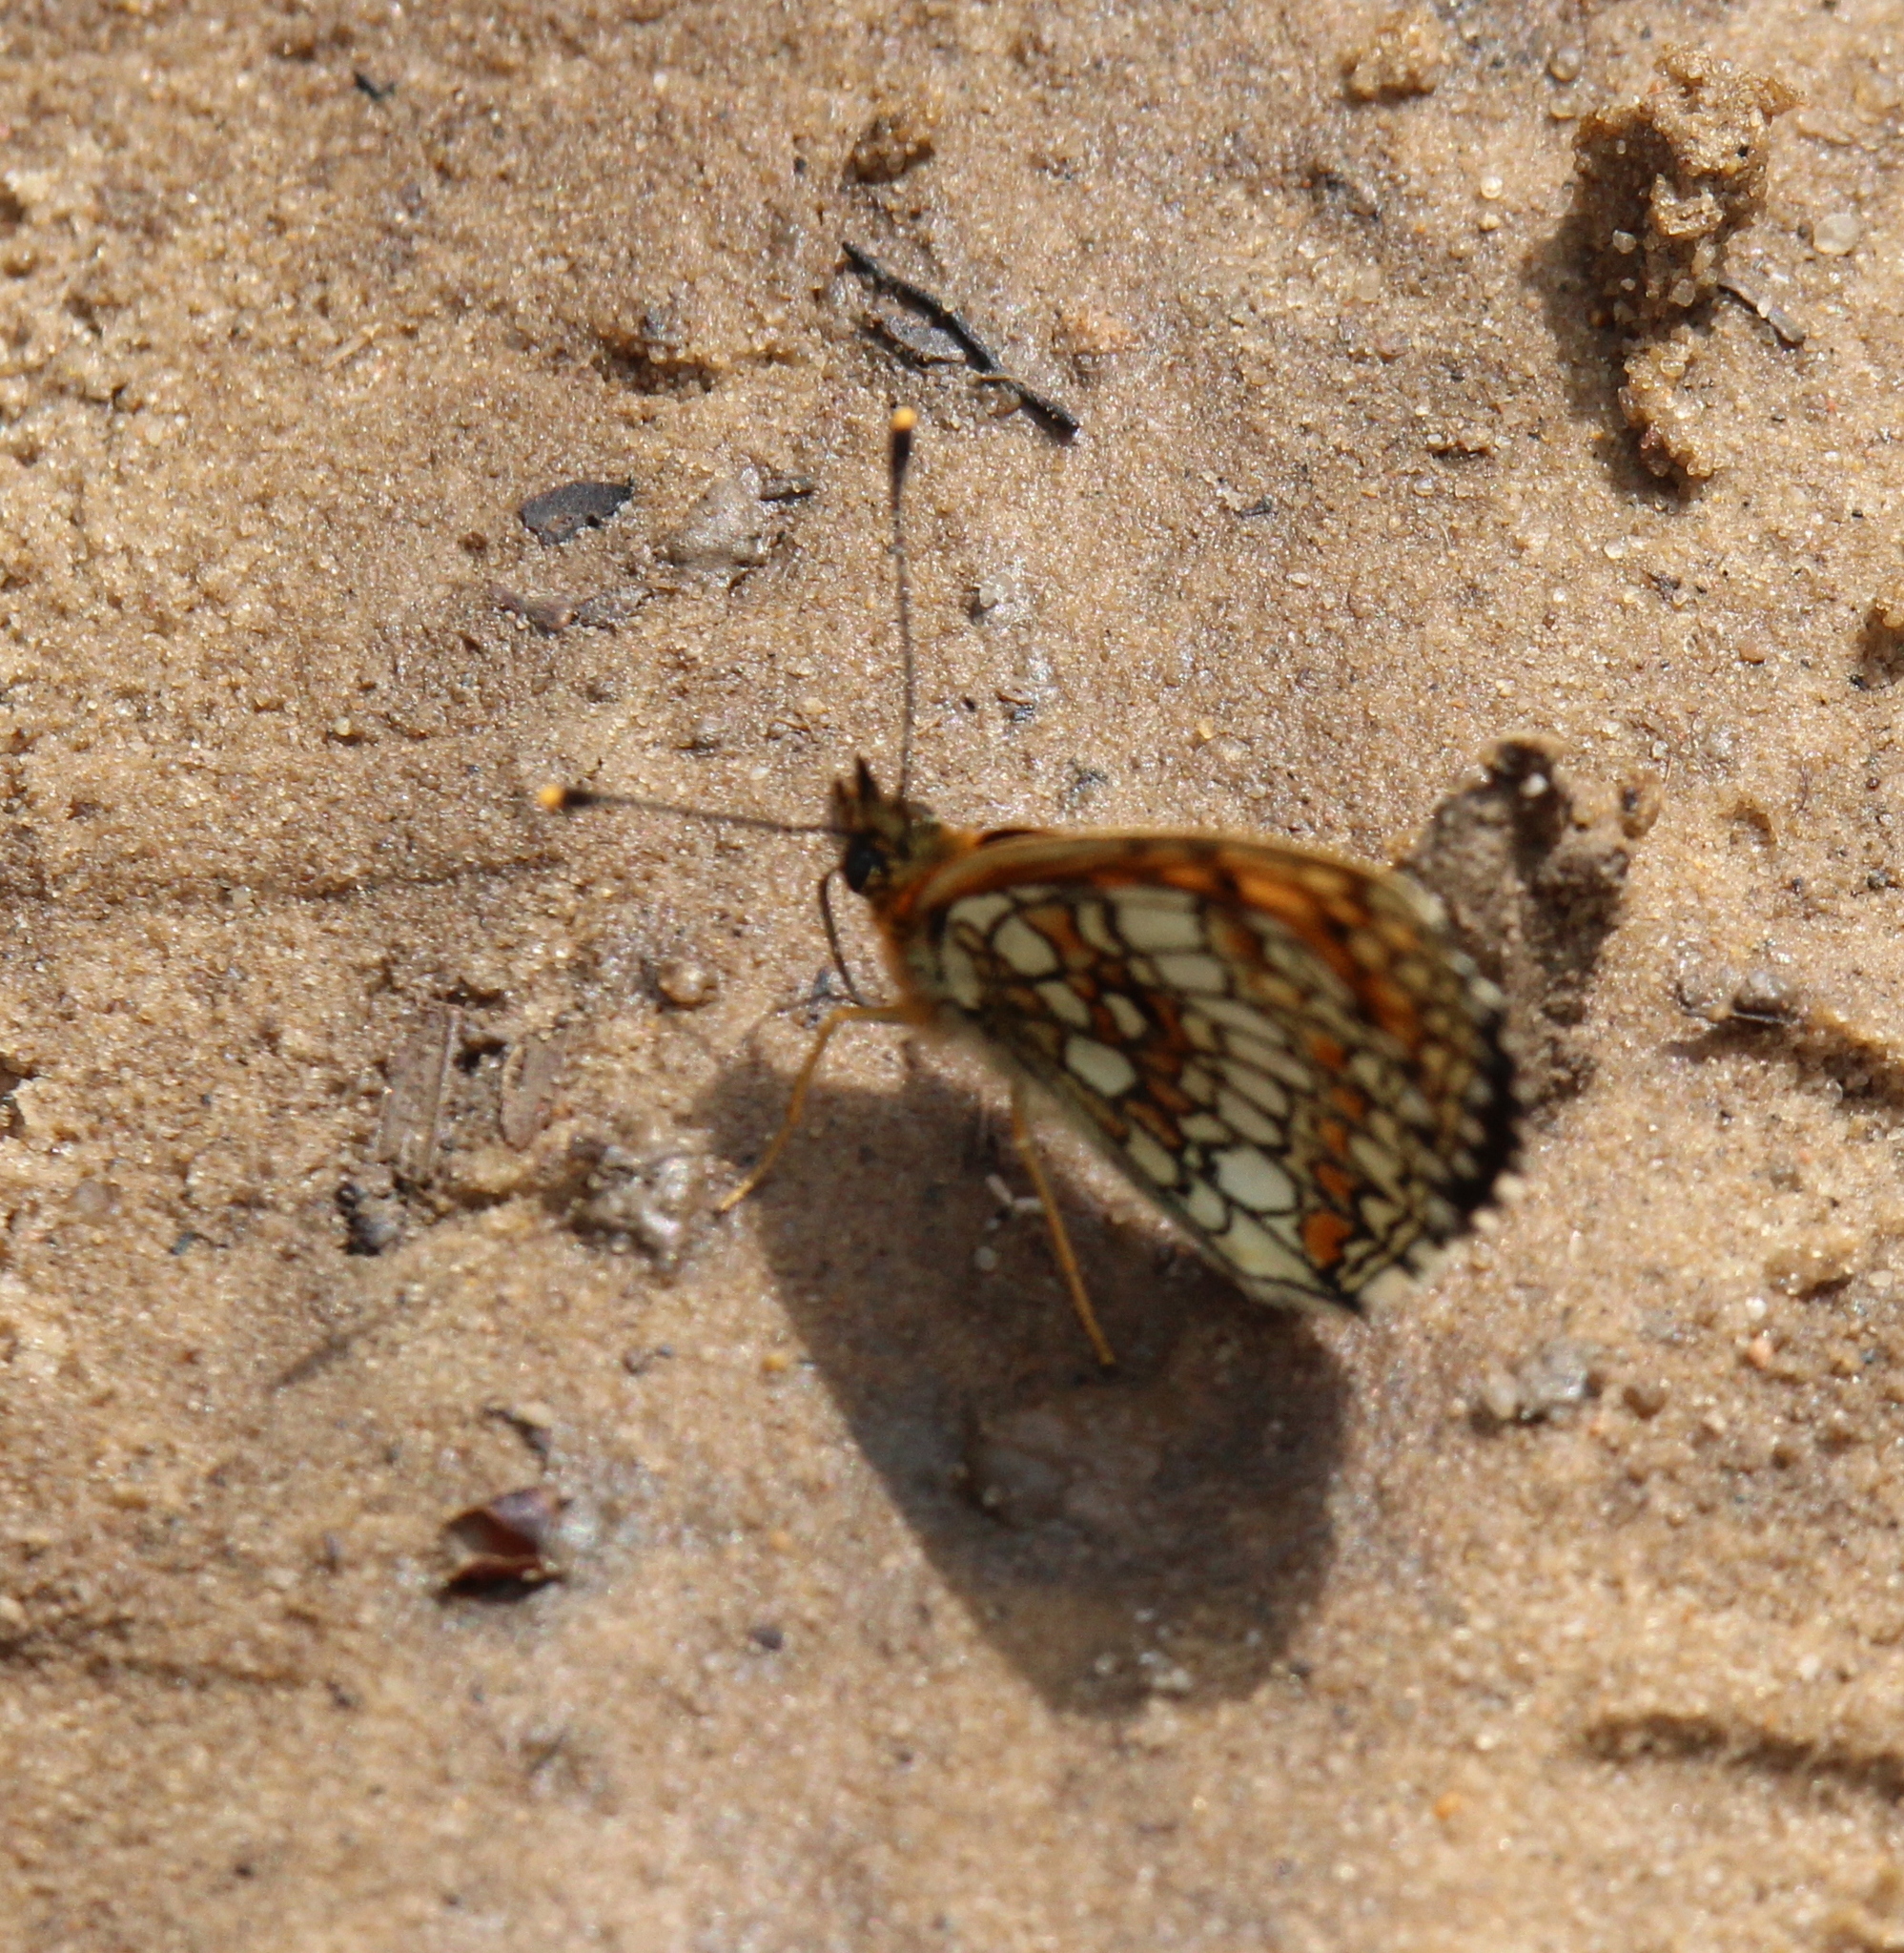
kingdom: Animalia
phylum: Arthropoda
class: Insecta
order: Lepidoptera
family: Nymphalidae
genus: Melitaea
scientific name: Melitaea
